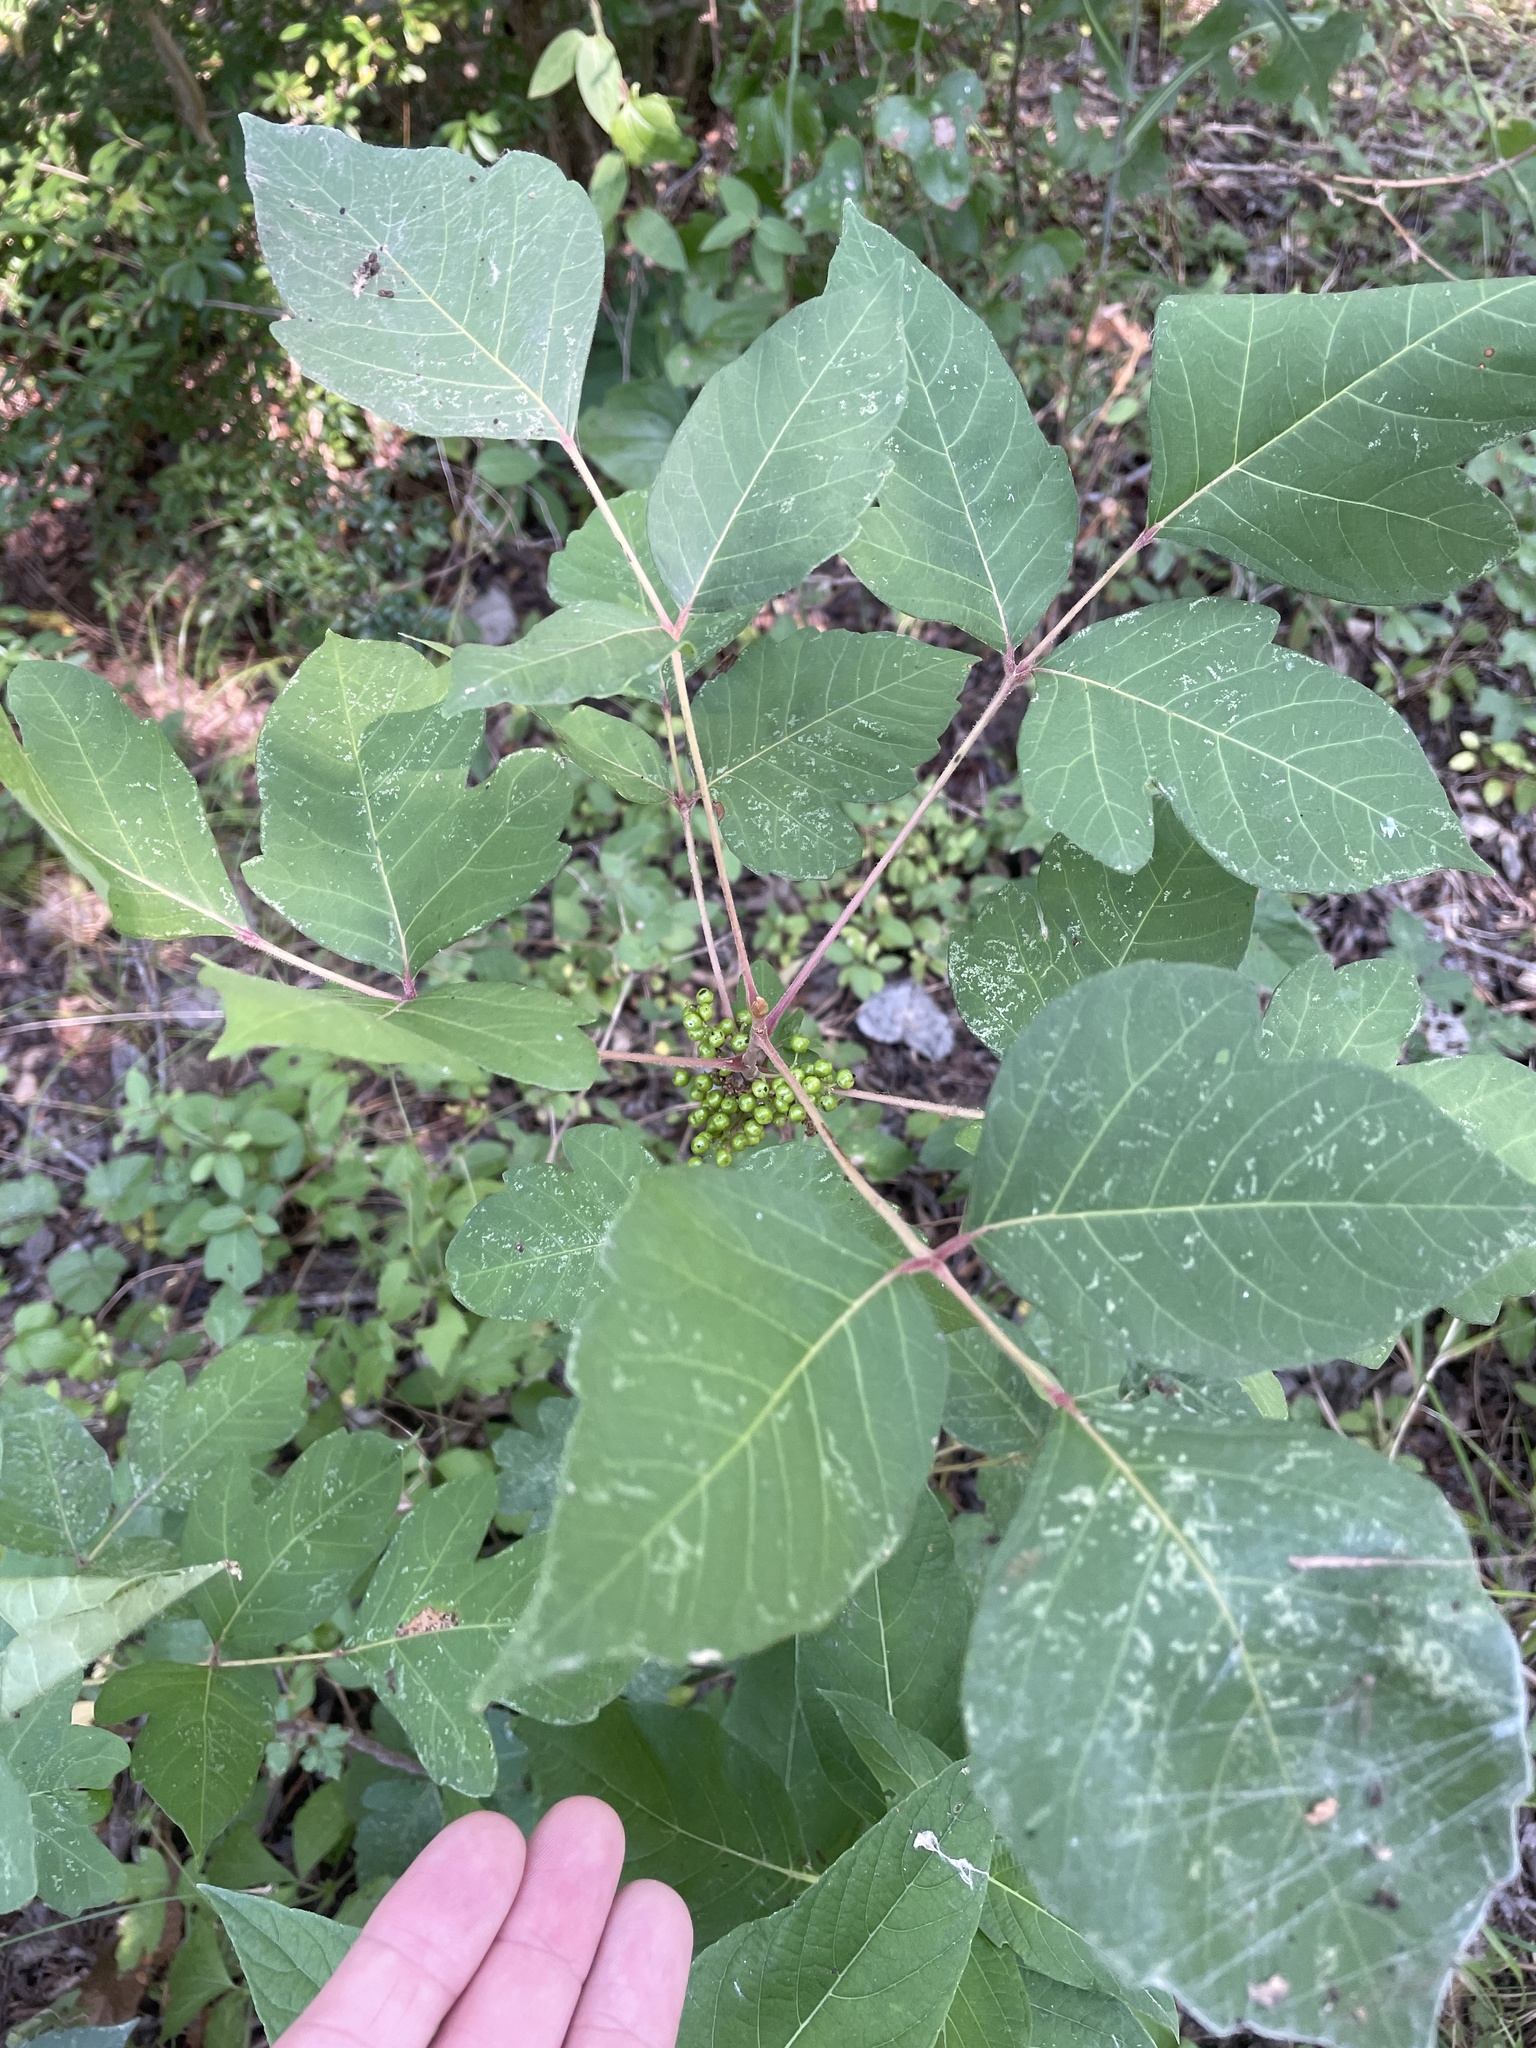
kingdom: Plantae
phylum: Tracheophyta
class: Magnoliopsida
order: Sapindales
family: Anacardiaceae
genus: Toxicodendron
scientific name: Toxicodendron radicans
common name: Poison ivy
